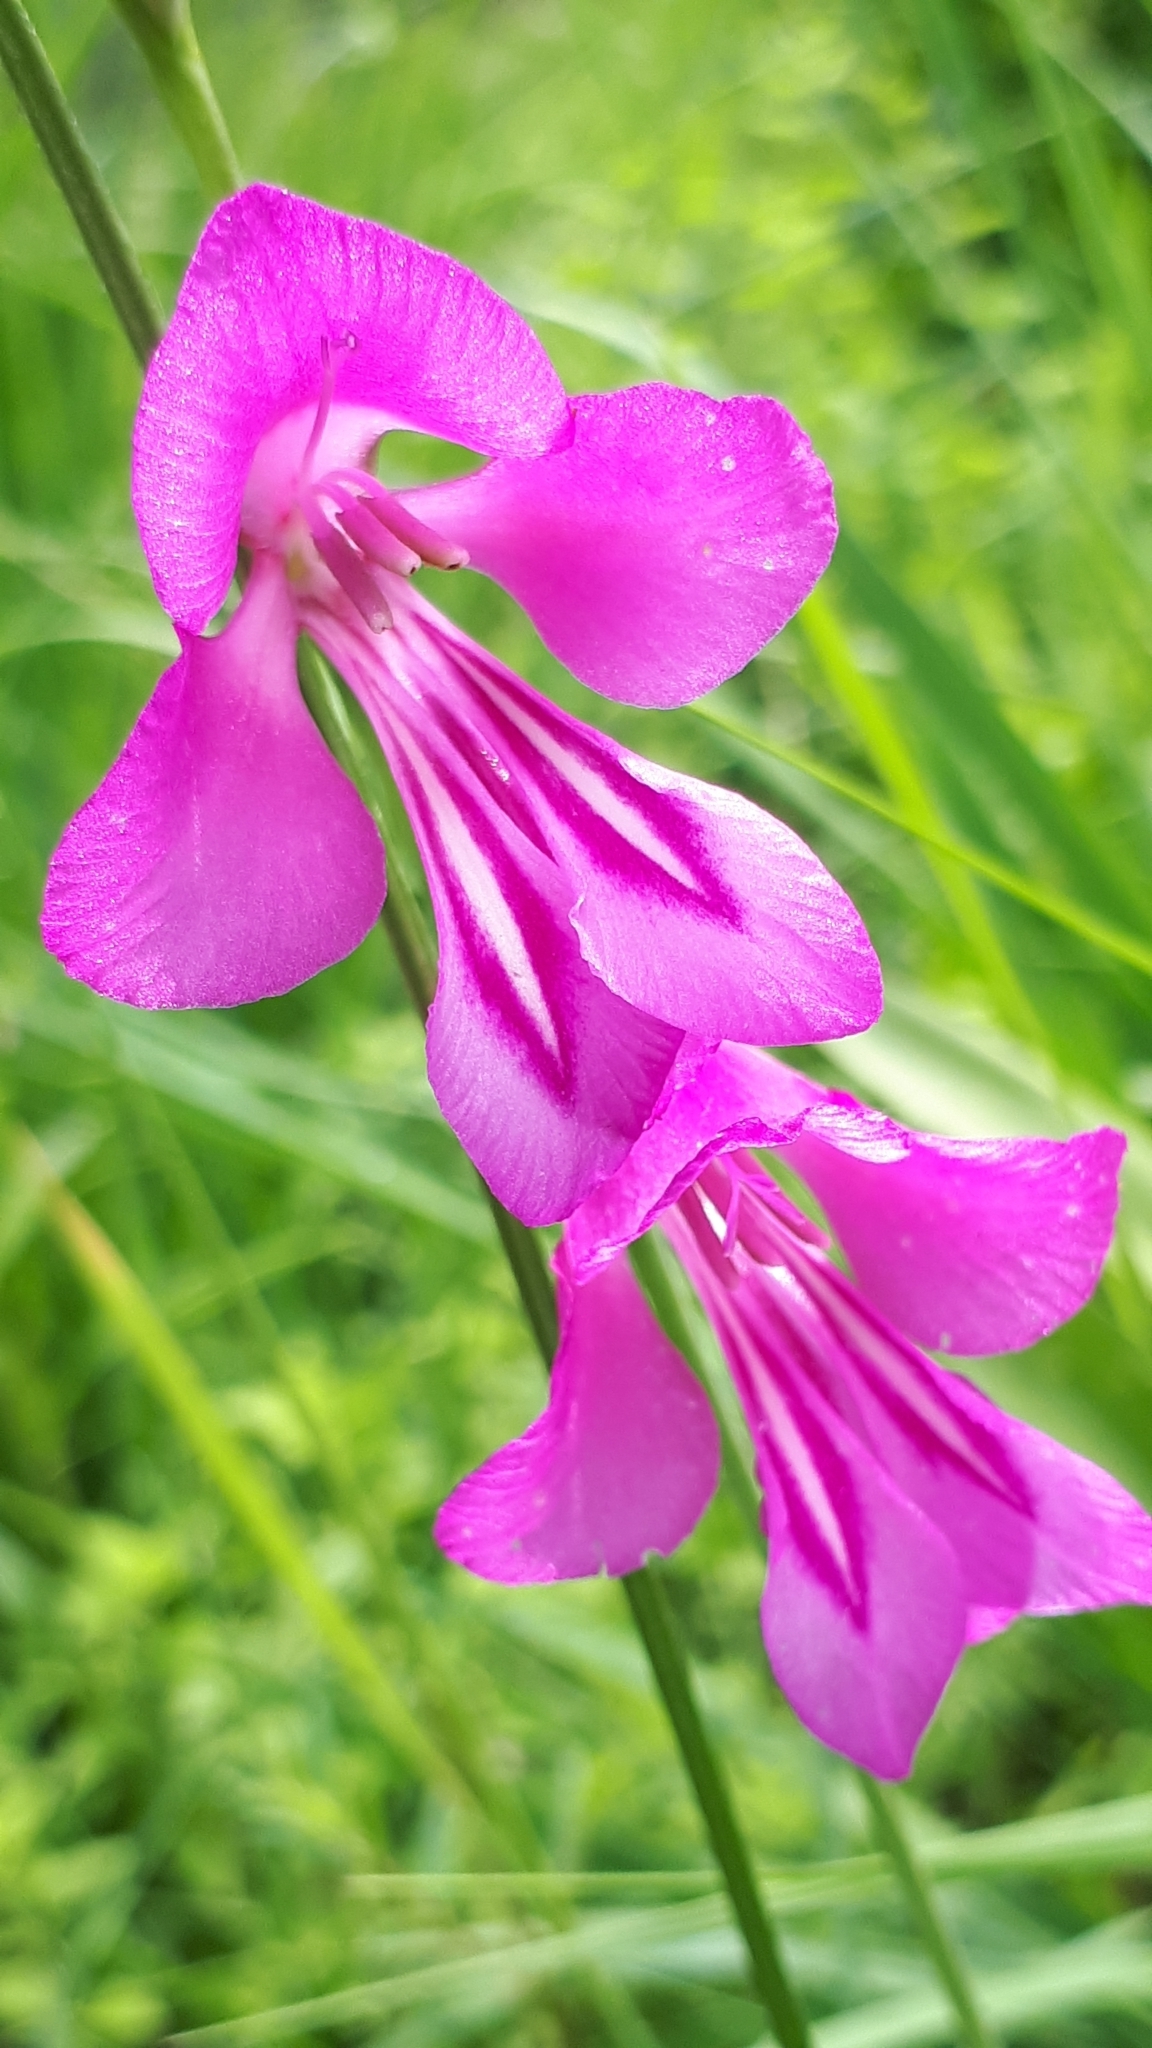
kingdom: Plantae
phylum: Tracheophyta
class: Liliopsida
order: Asparagales
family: Iridaceae
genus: Gladiolus
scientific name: Gladiolus palustris
